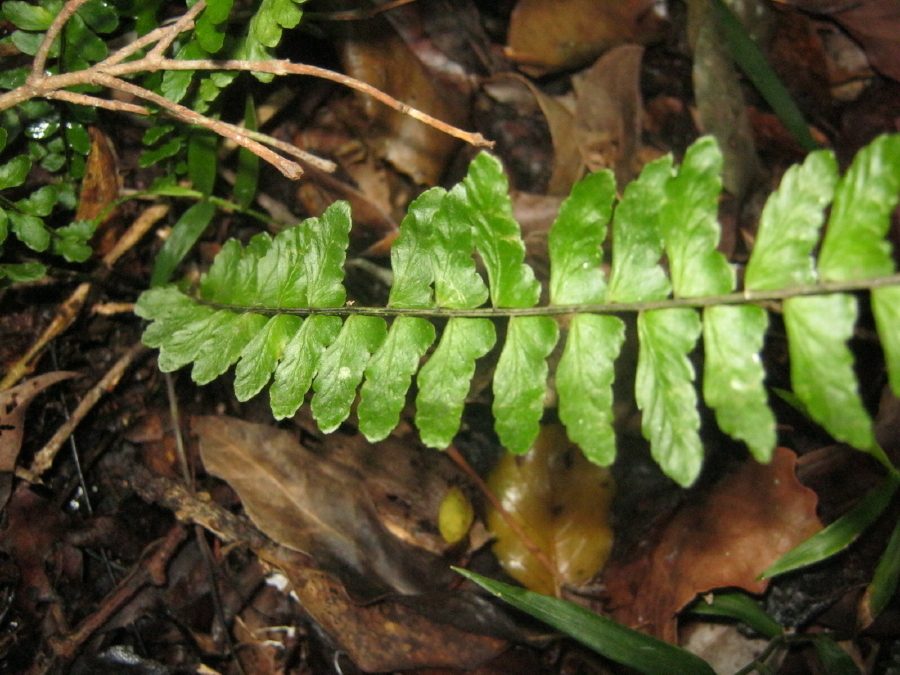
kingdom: Plantae
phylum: Tracheophyta
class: Polypodiopsida
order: Polypodiales
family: Aspleniaceae
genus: Asplenium
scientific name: Asplenium lunulatum
